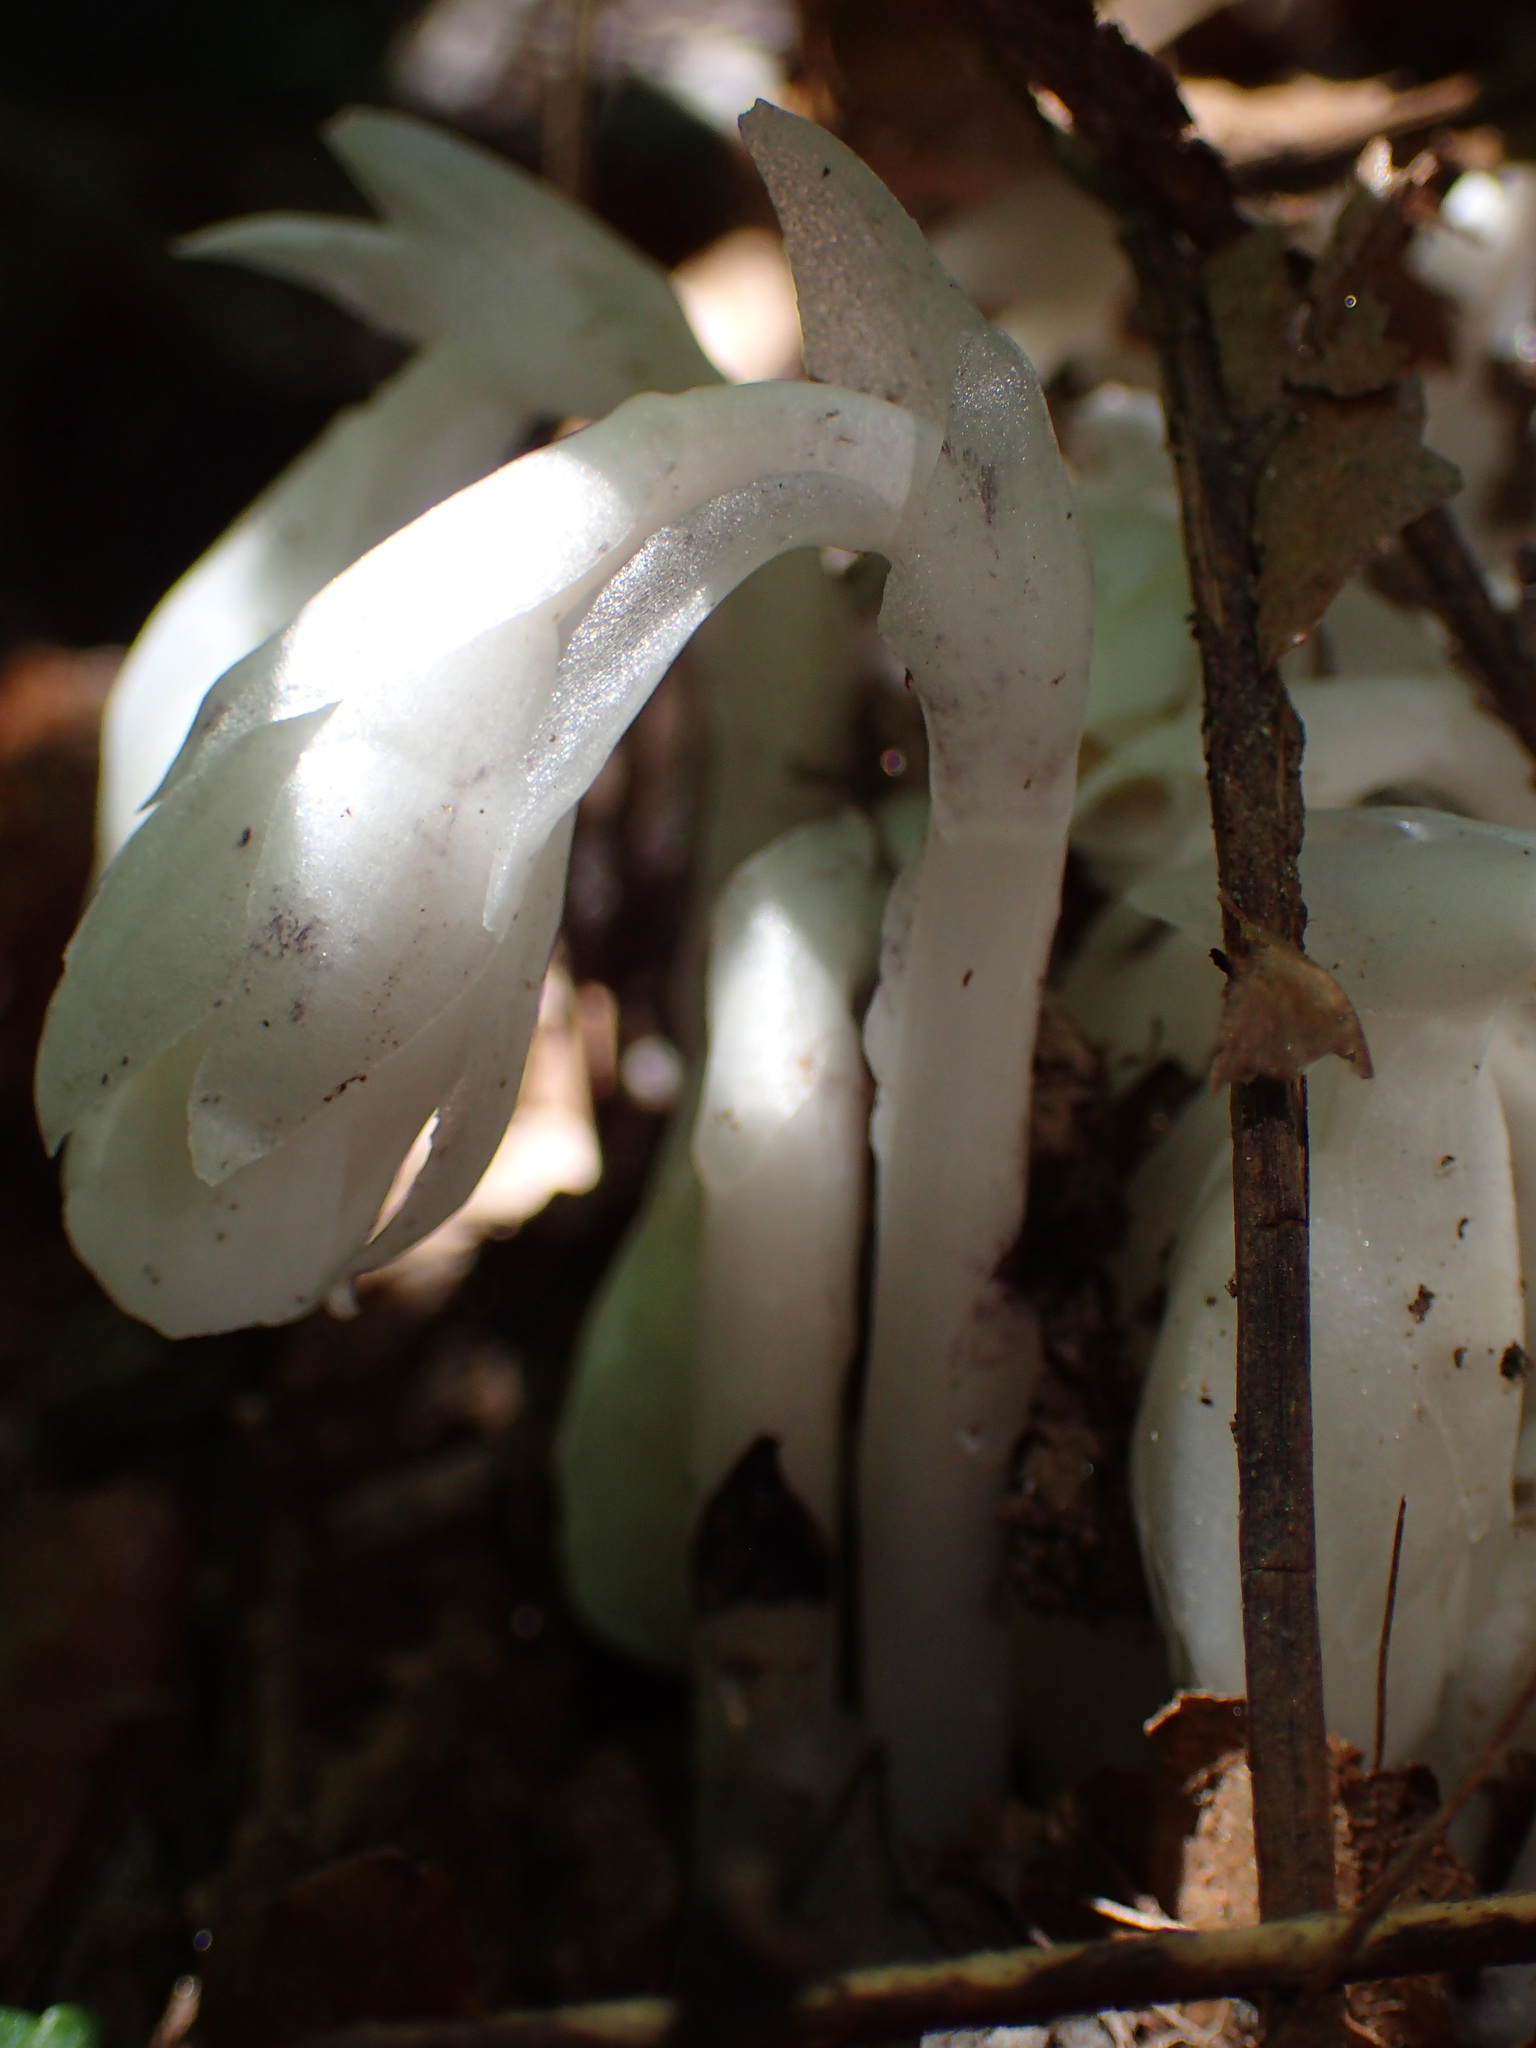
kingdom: Plantae
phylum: Tracheophyta
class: Magnoliopsida
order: Ericales
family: Ericaceae
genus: Monotropa
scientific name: Monotropa uniflora
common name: Convulsion root
